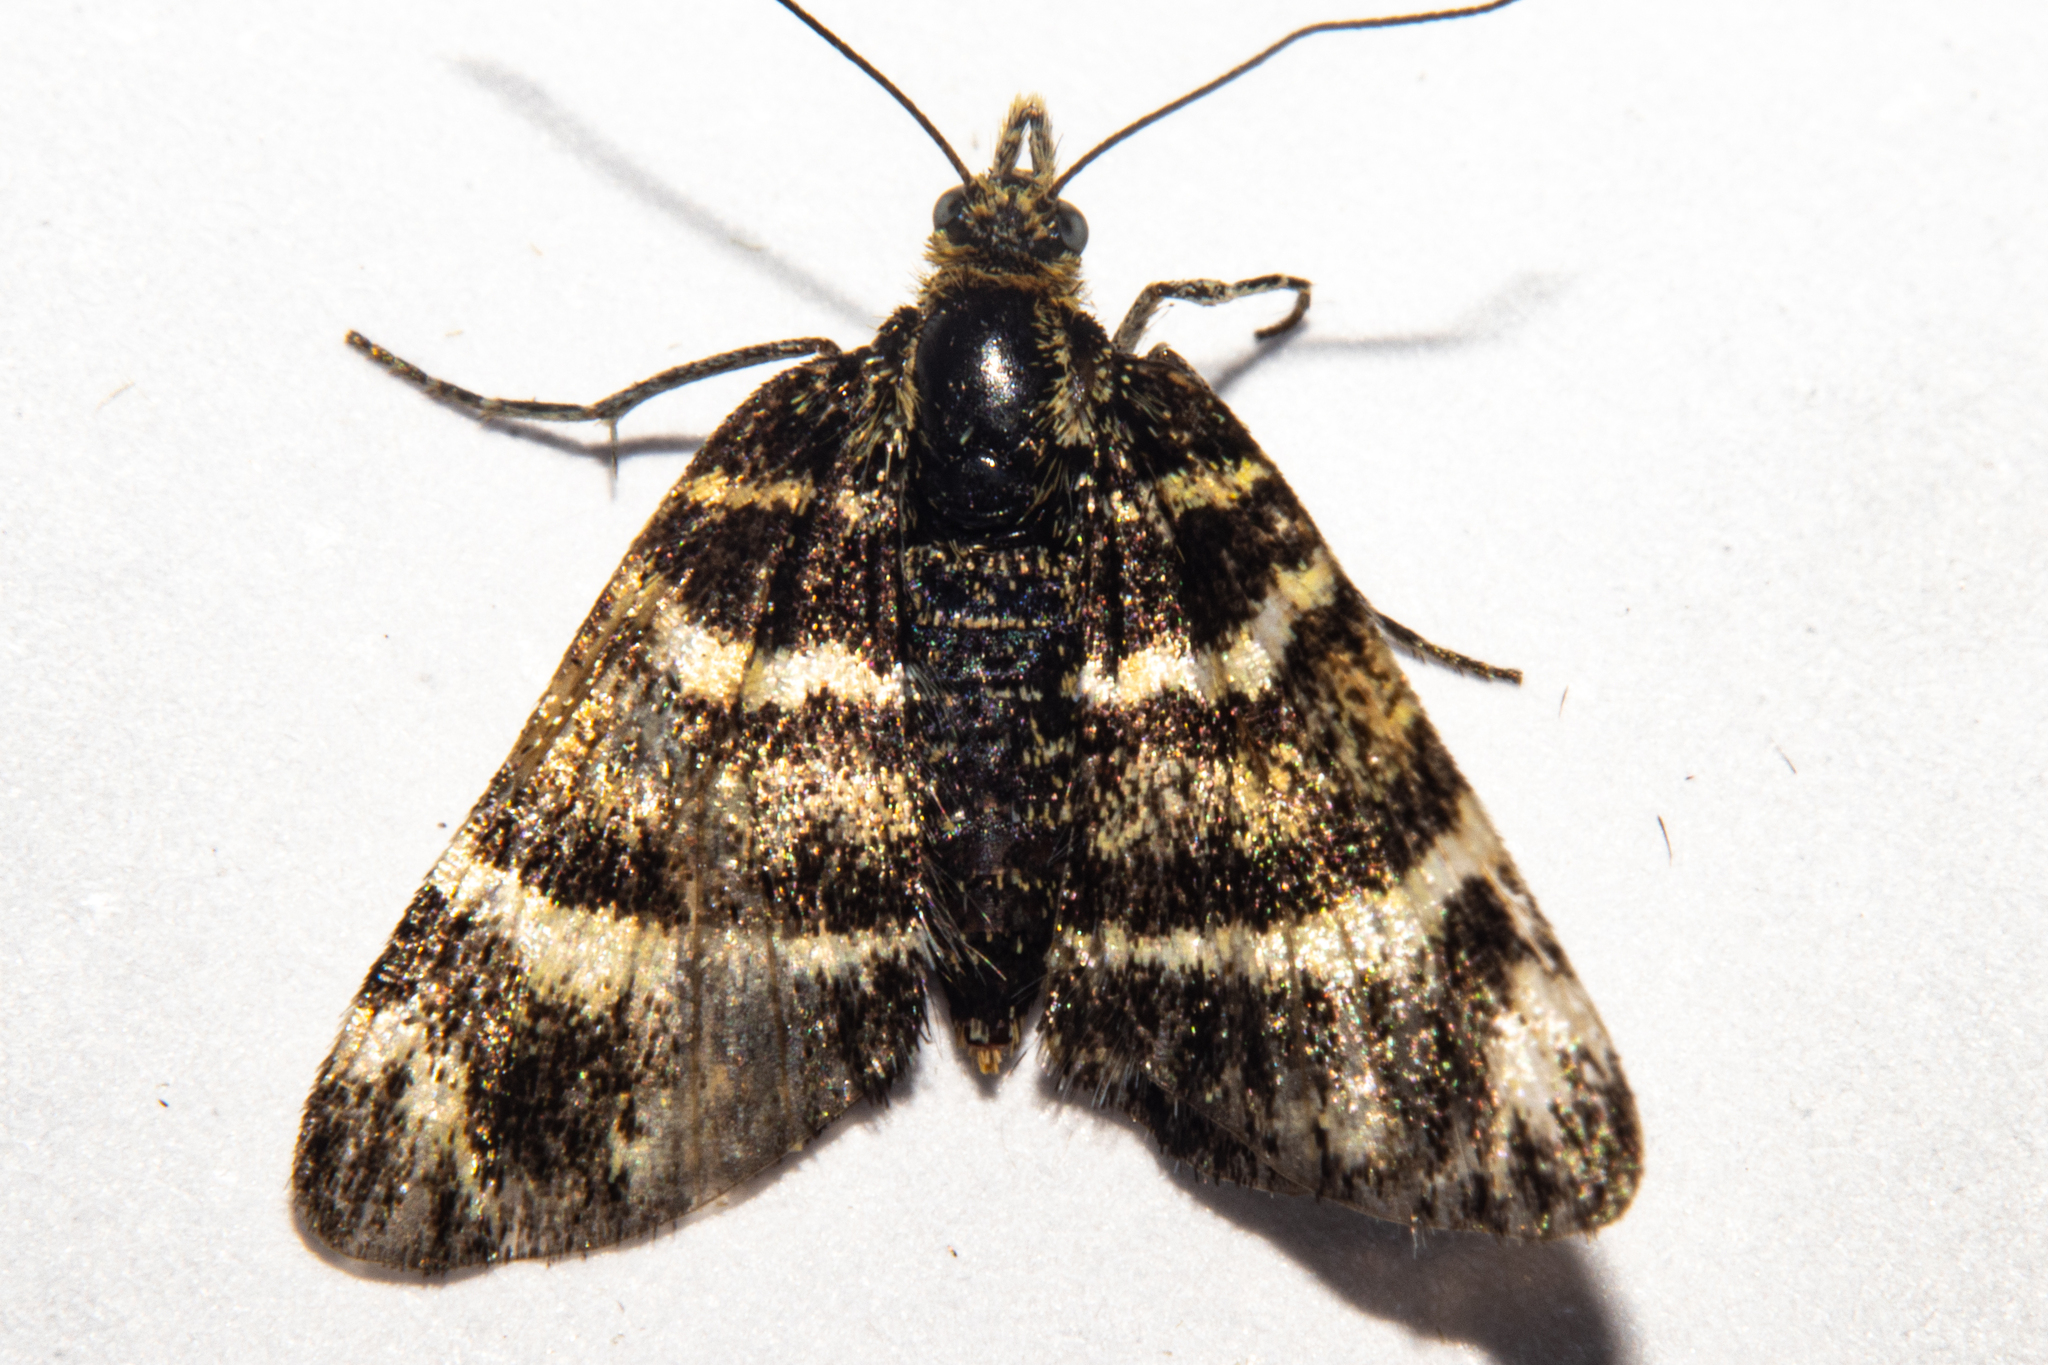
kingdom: Animalia
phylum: Arthropoda
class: Insecta
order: Lepidoptera
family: Geometridae
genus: Notoreas
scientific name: Notoreas ortholeuca
